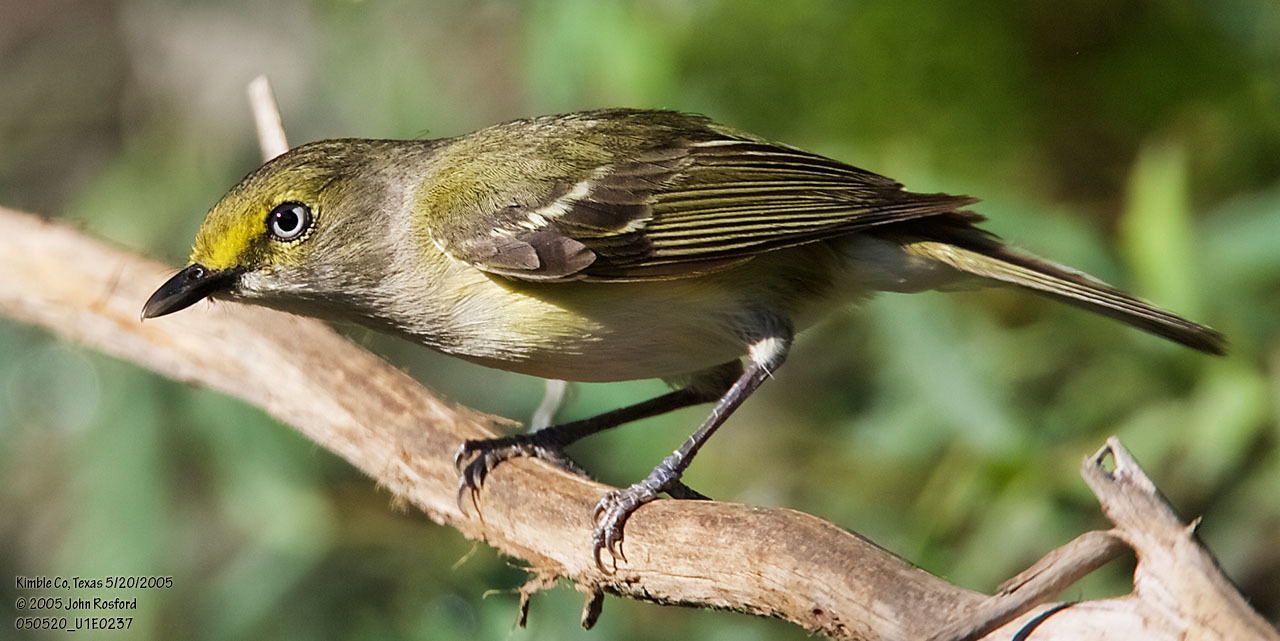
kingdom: Animalia
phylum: Chordata
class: Aves
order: Passeriformes
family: Vireonidae
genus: Vireo
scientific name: Vireo griseus
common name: White-eyed vireo
